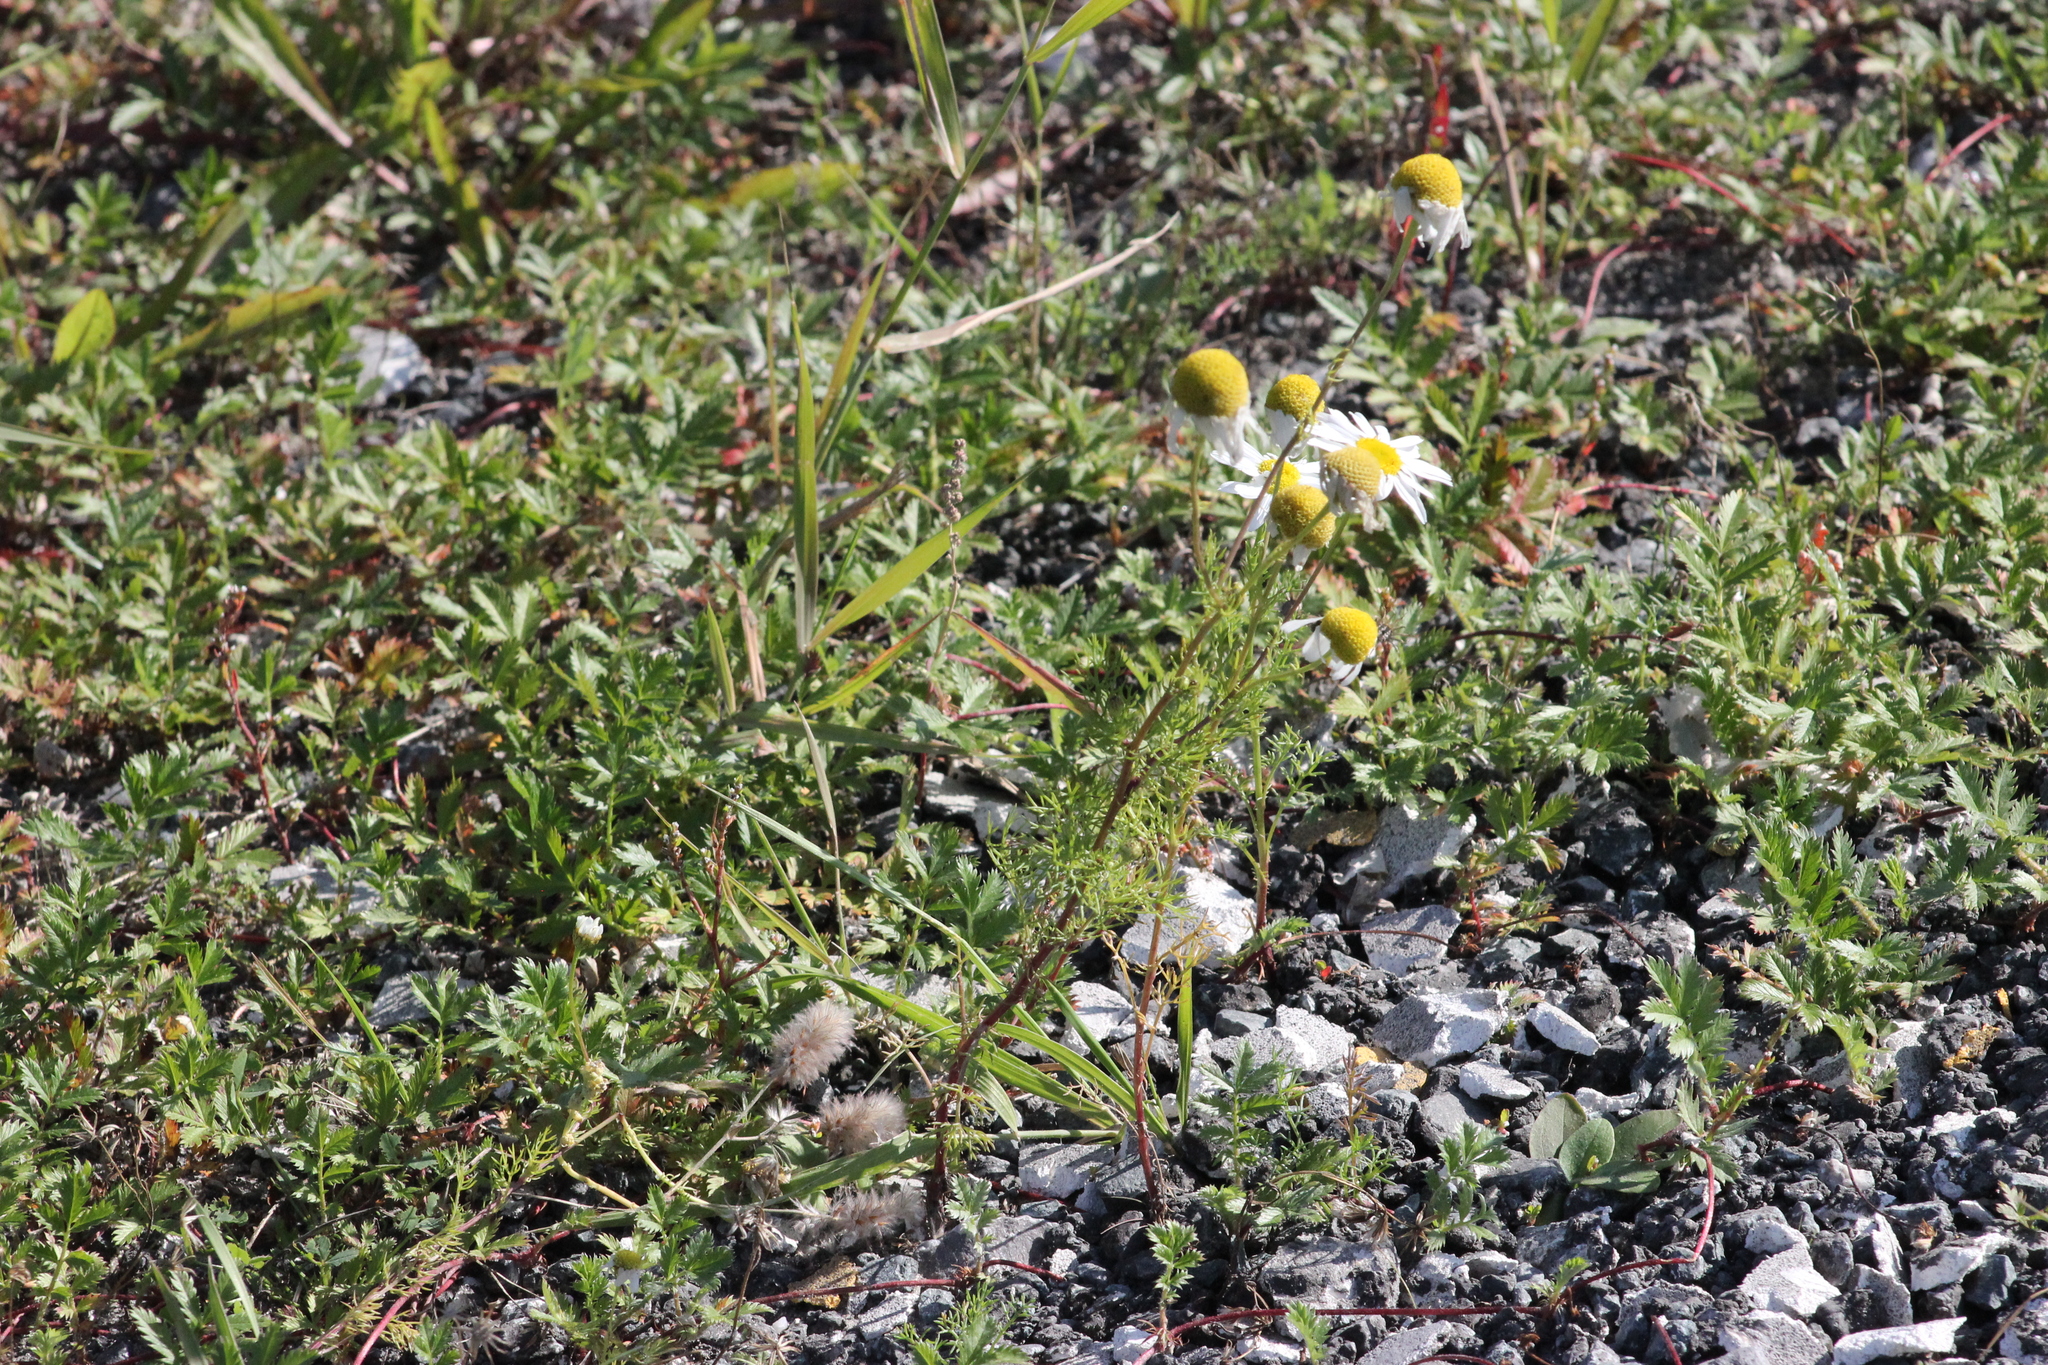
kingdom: Plantae
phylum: Tracheophyta
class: Magnoliopsida
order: Asterales
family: Asteraceae
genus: Tripleurospermum
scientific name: Tripleurospermum inodorum
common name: Scentless mayweed
